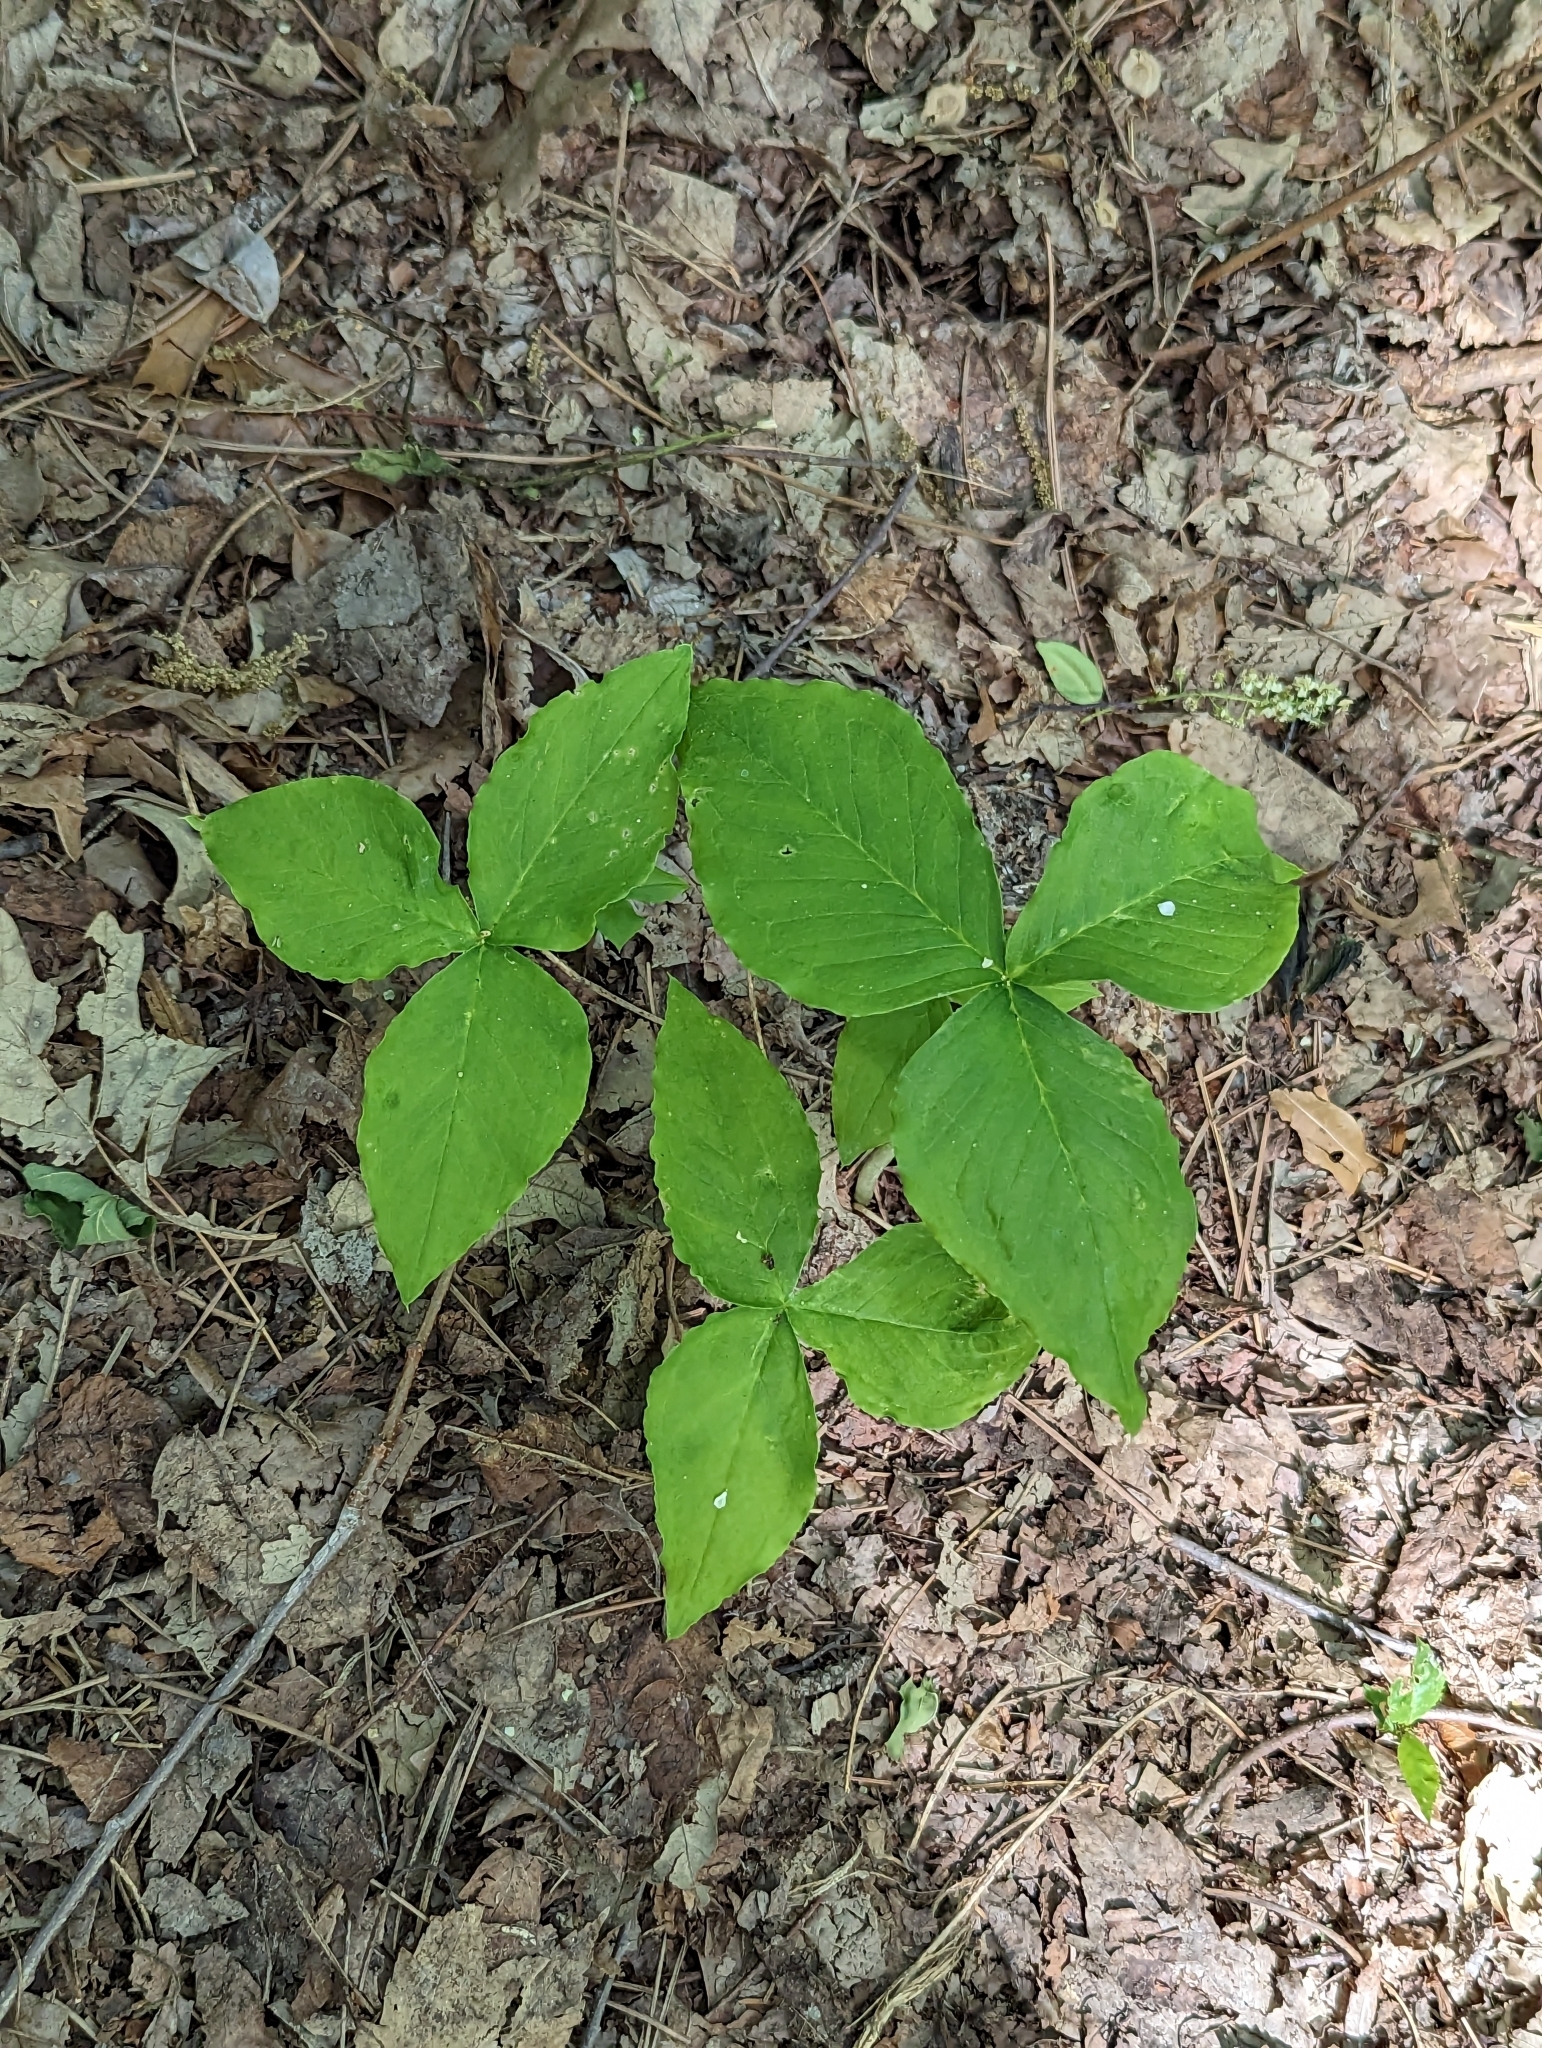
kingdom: Plantae
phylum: Tracheophyta
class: Liliopsida
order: Alismatales
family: Araceae
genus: Arisaema
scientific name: Arisaema triphyllum
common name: Jack-in-the-pulpit
